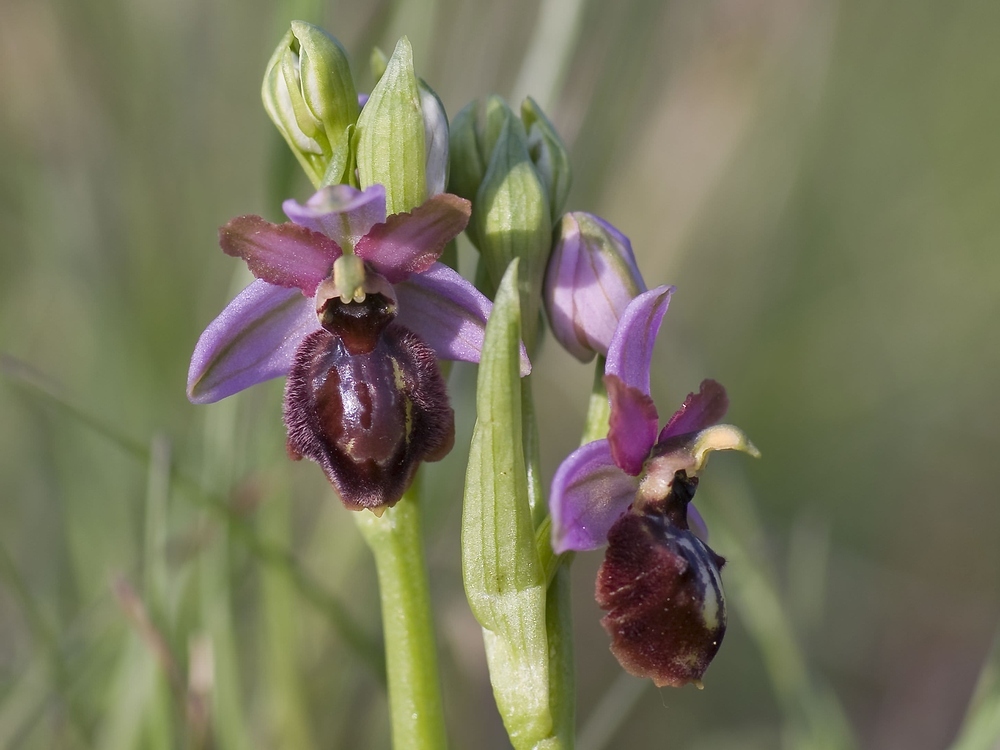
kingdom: Plantae
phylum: Tracheophyta
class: Liliopsida
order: Asparagales
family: Orchidaceae
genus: Ophrys
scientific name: Ophrys sphegodes
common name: Early spider-orchid
